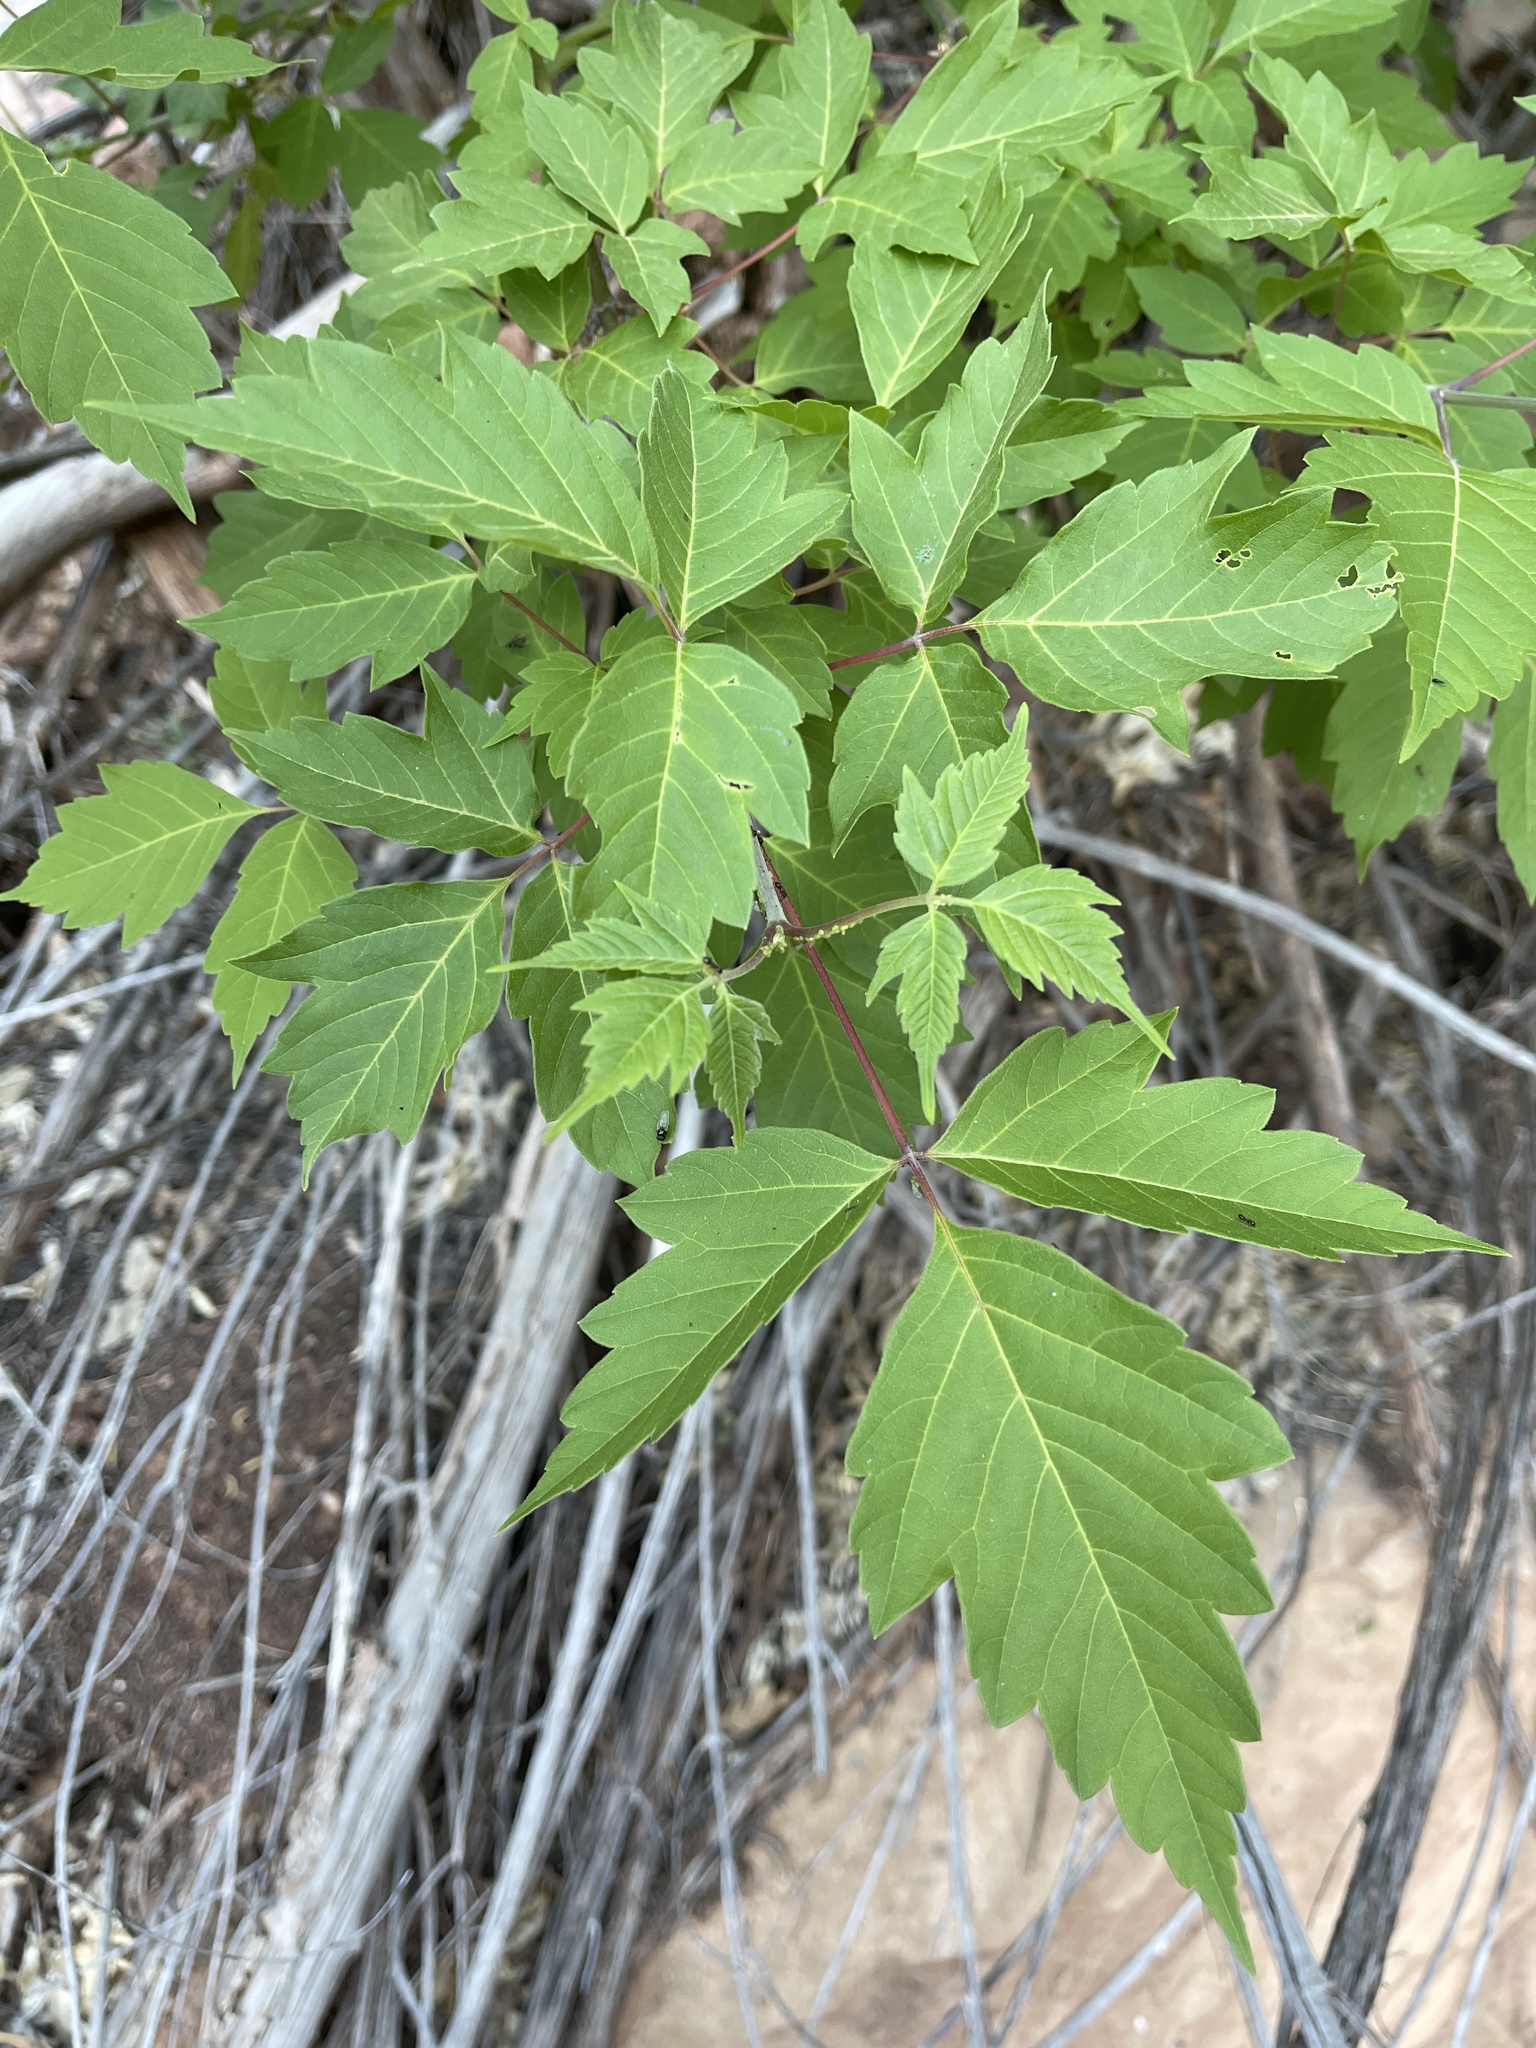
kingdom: Plantae
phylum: Tracheophyta
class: Magnoliopsida
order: Sapindales
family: Sapindaceae
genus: Acer
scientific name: Acer negundo
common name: Ashleaf maple
